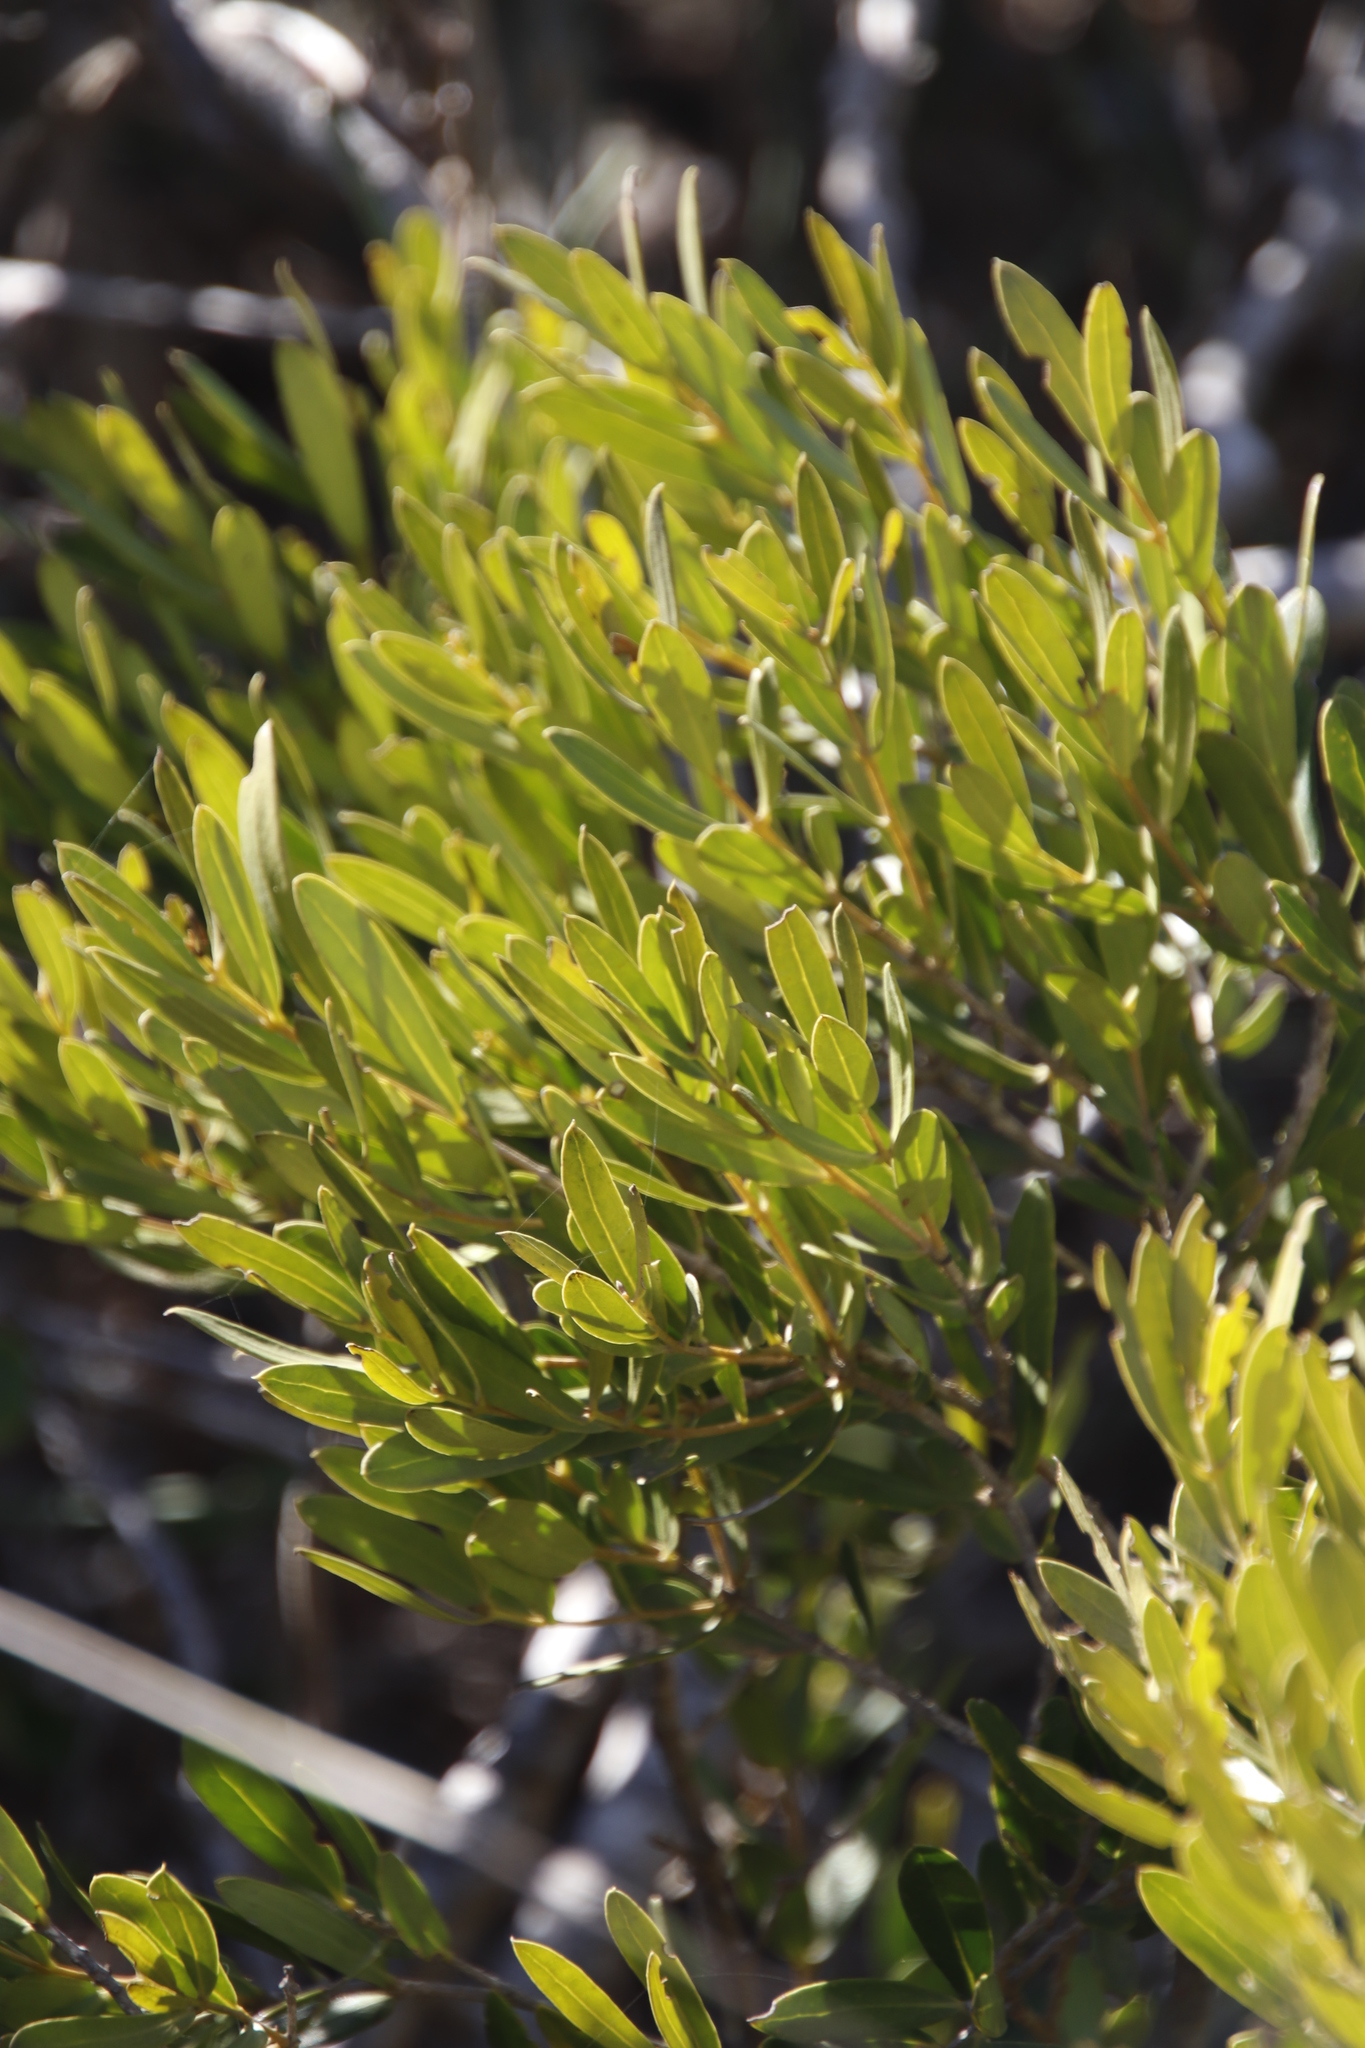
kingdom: Plantae
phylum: Tracheophyta
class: Magnoliopsida
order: Lamiales
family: Oleaceae
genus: Olea
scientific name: Olea exasperata
